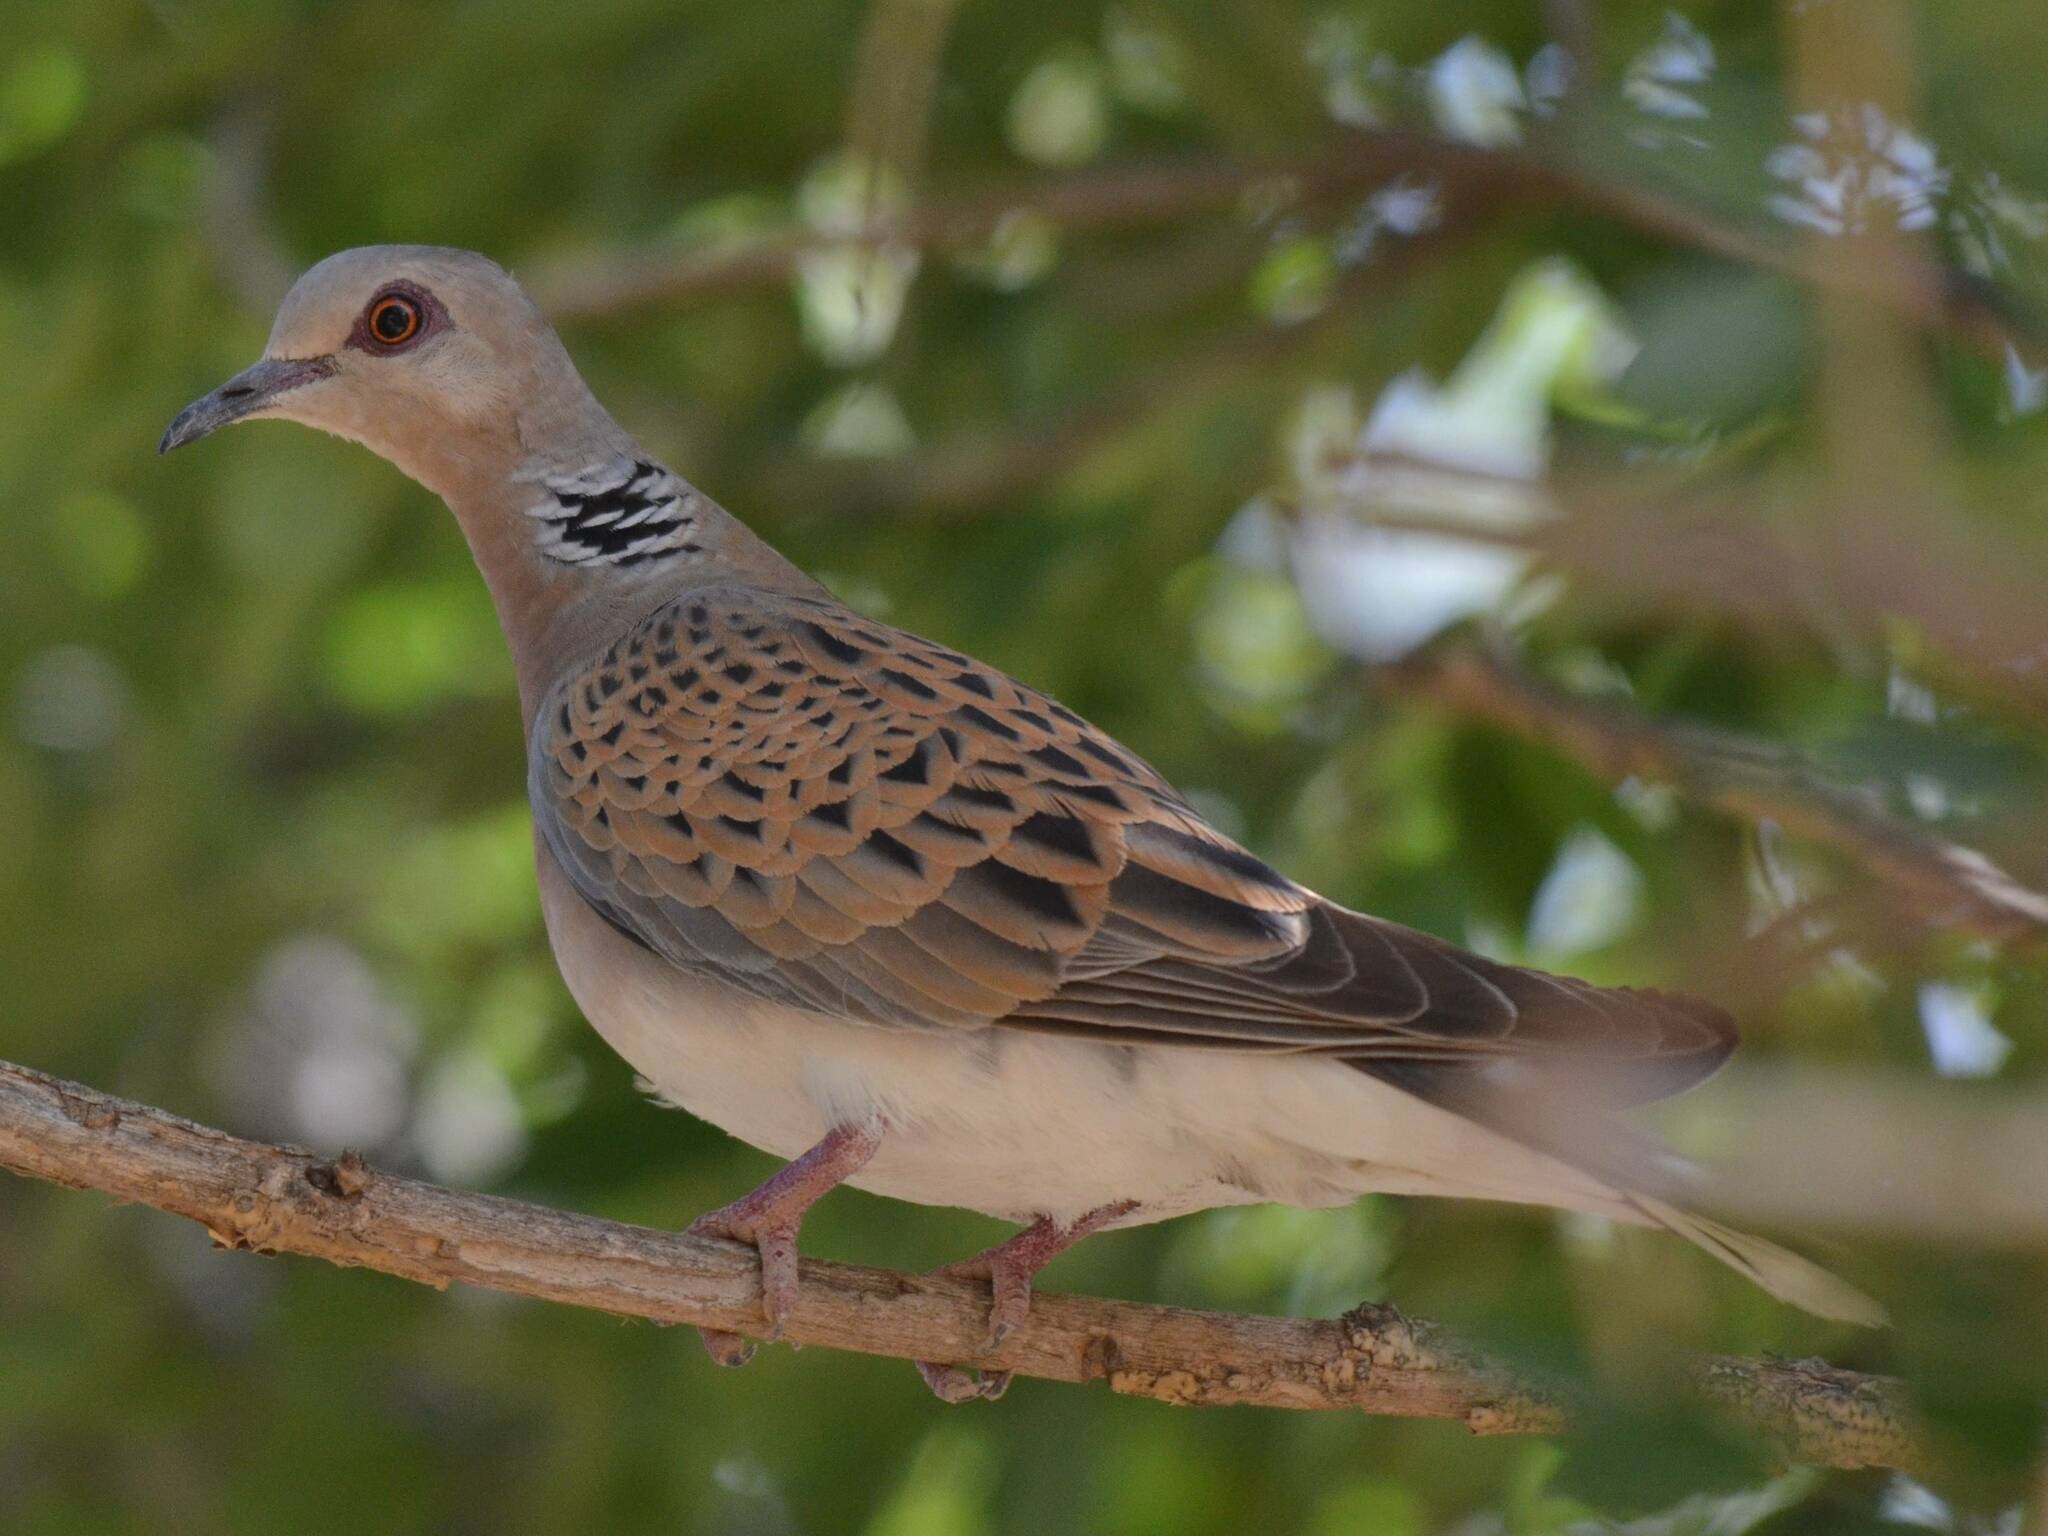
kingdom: Animalia
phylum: Chordata
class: Aves
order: Columbiformes
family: Columbidae
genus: Streptopelia
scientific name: Streptopelia turtur
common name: European turtle dove
